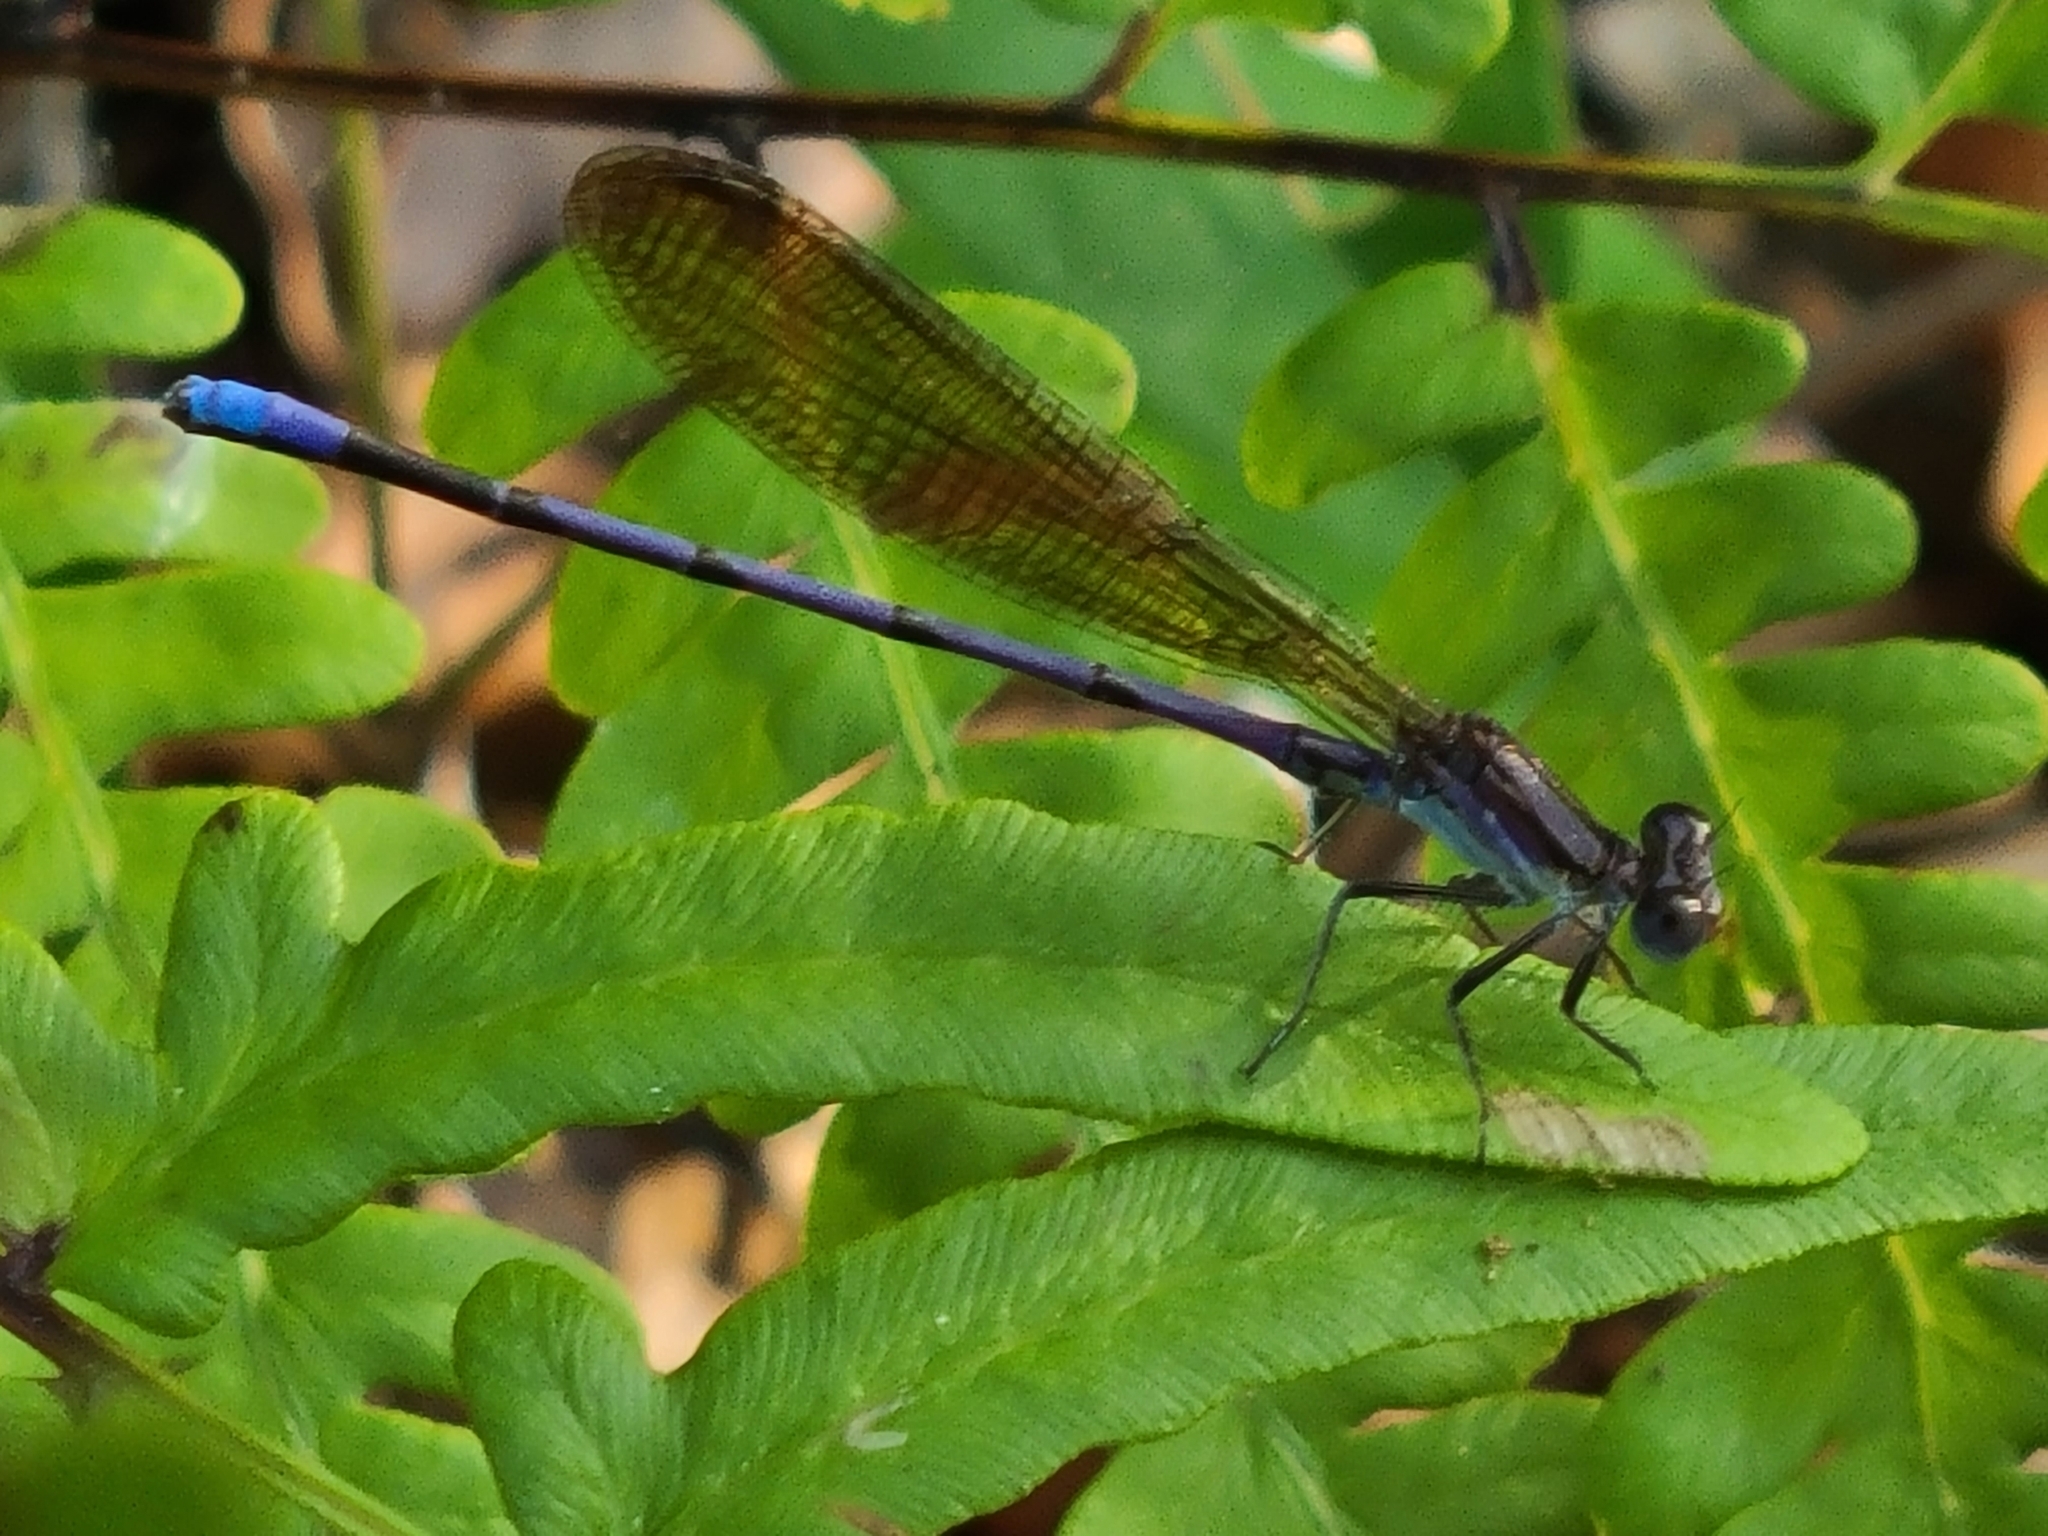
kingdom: Animalia
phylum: Arthropoda
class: Insecta
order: Odonata
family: Coenagrionidae
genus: Argia
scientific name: Argia fumipennis
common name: Variable dancer
